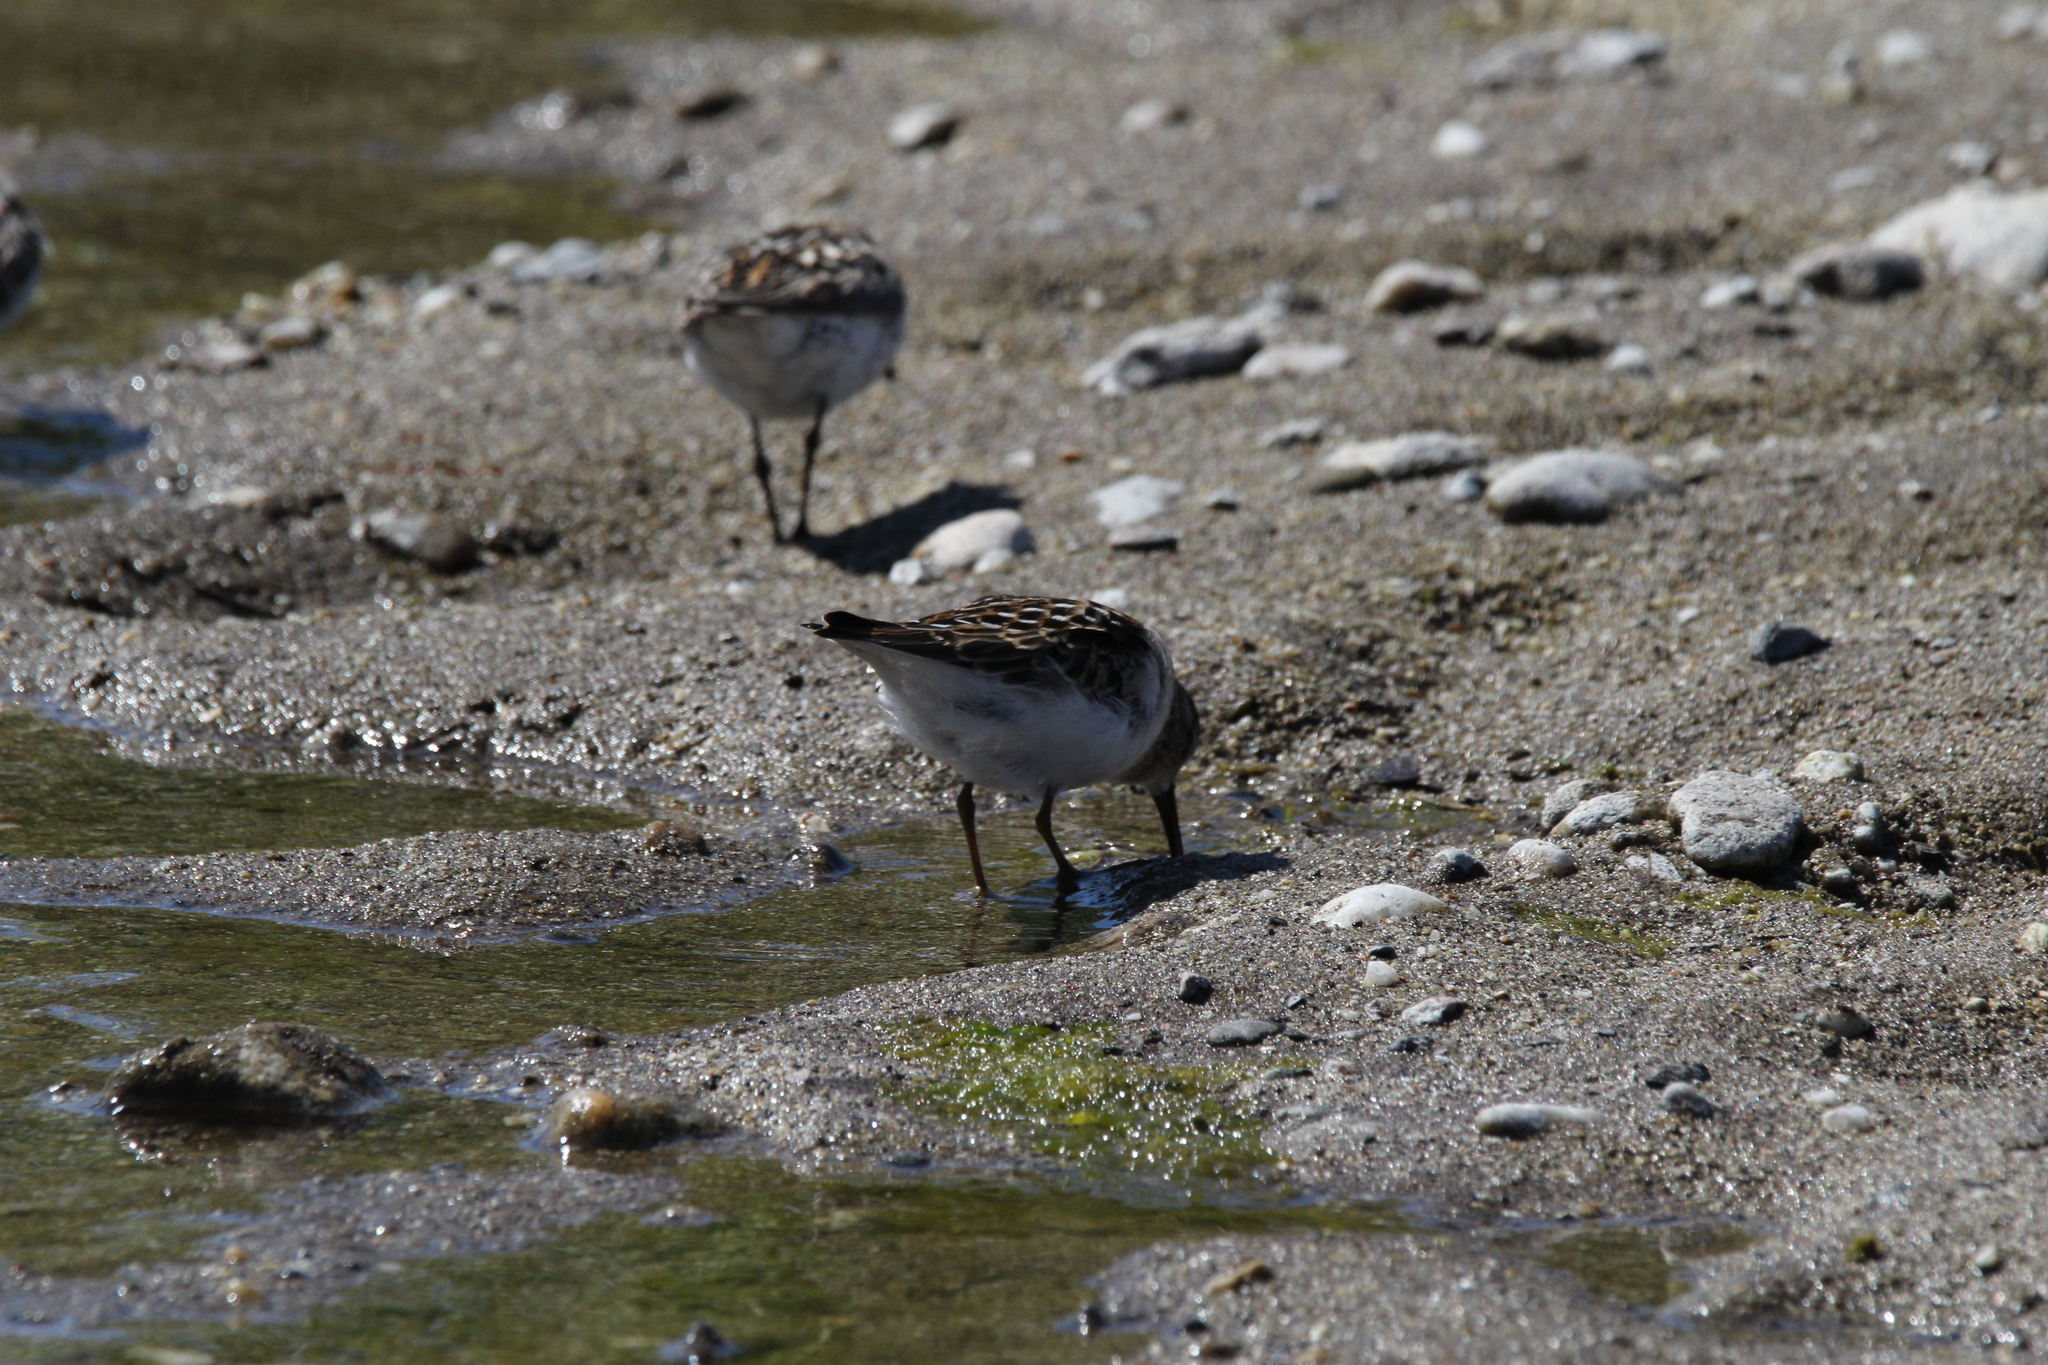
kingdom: Animalia
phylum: Chordata
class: Aves
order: Charadriiformes
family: Scolopacidae
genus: Calidris
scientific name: Calidris minutilla
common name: Least sandpiper
